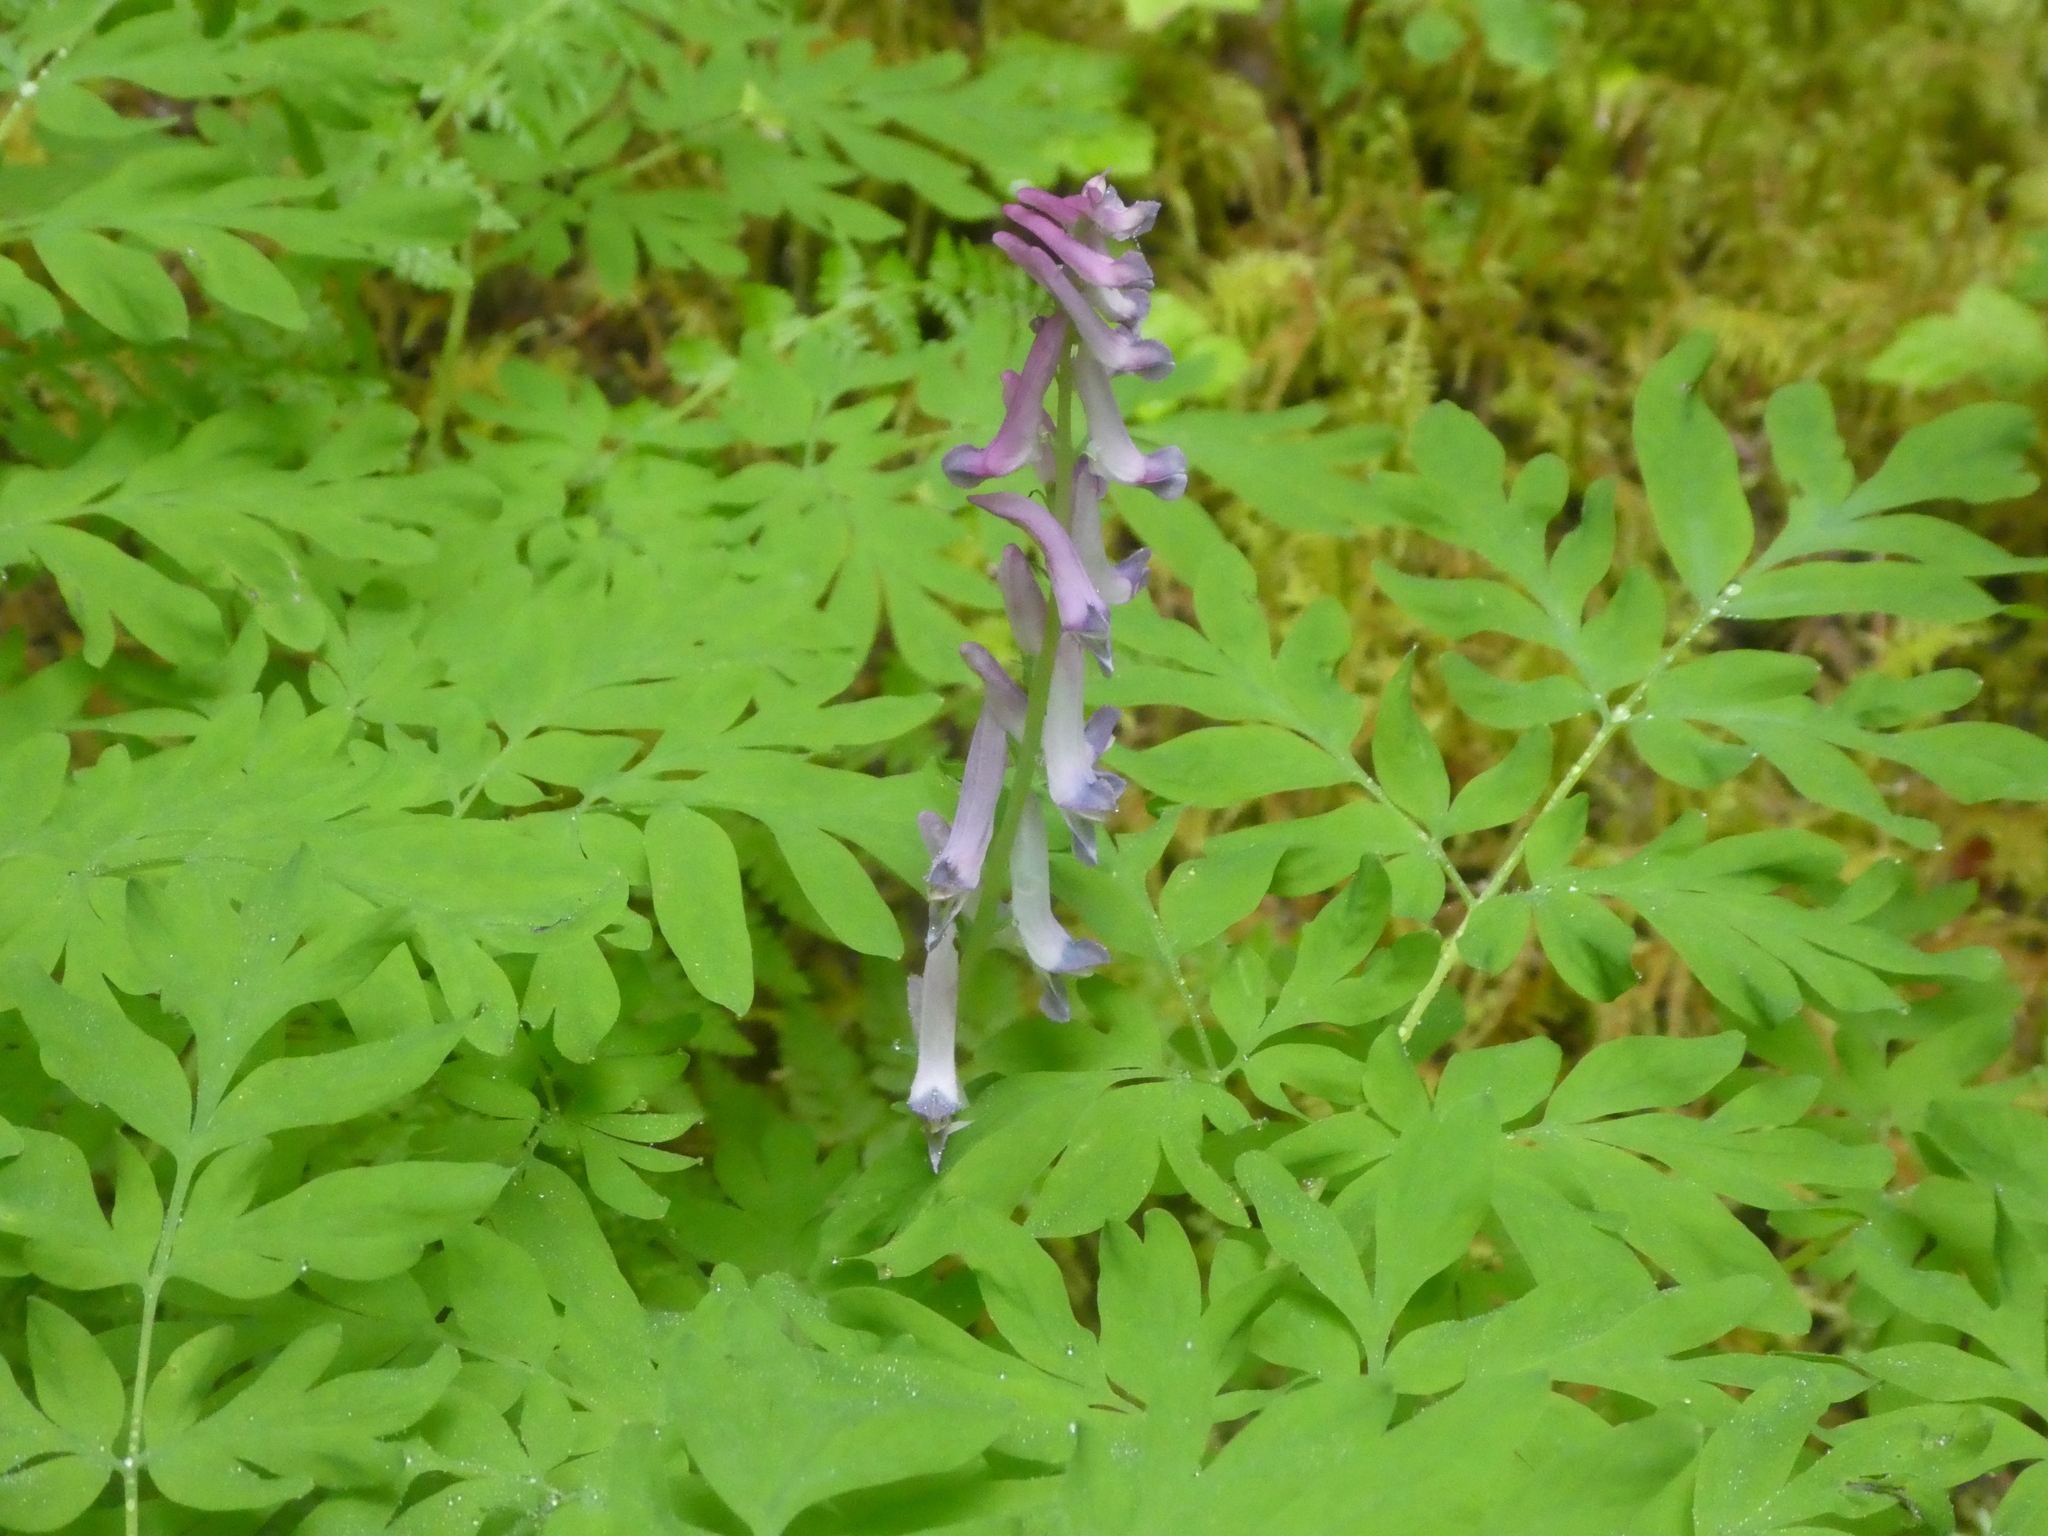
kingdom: Plantae
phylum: Tracheophyta
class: Magnoliopsida
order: Ranunculales
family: Papaveraceae
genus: Corydalis
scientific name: Corydalis scouleri
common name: Scouler's corydalis
